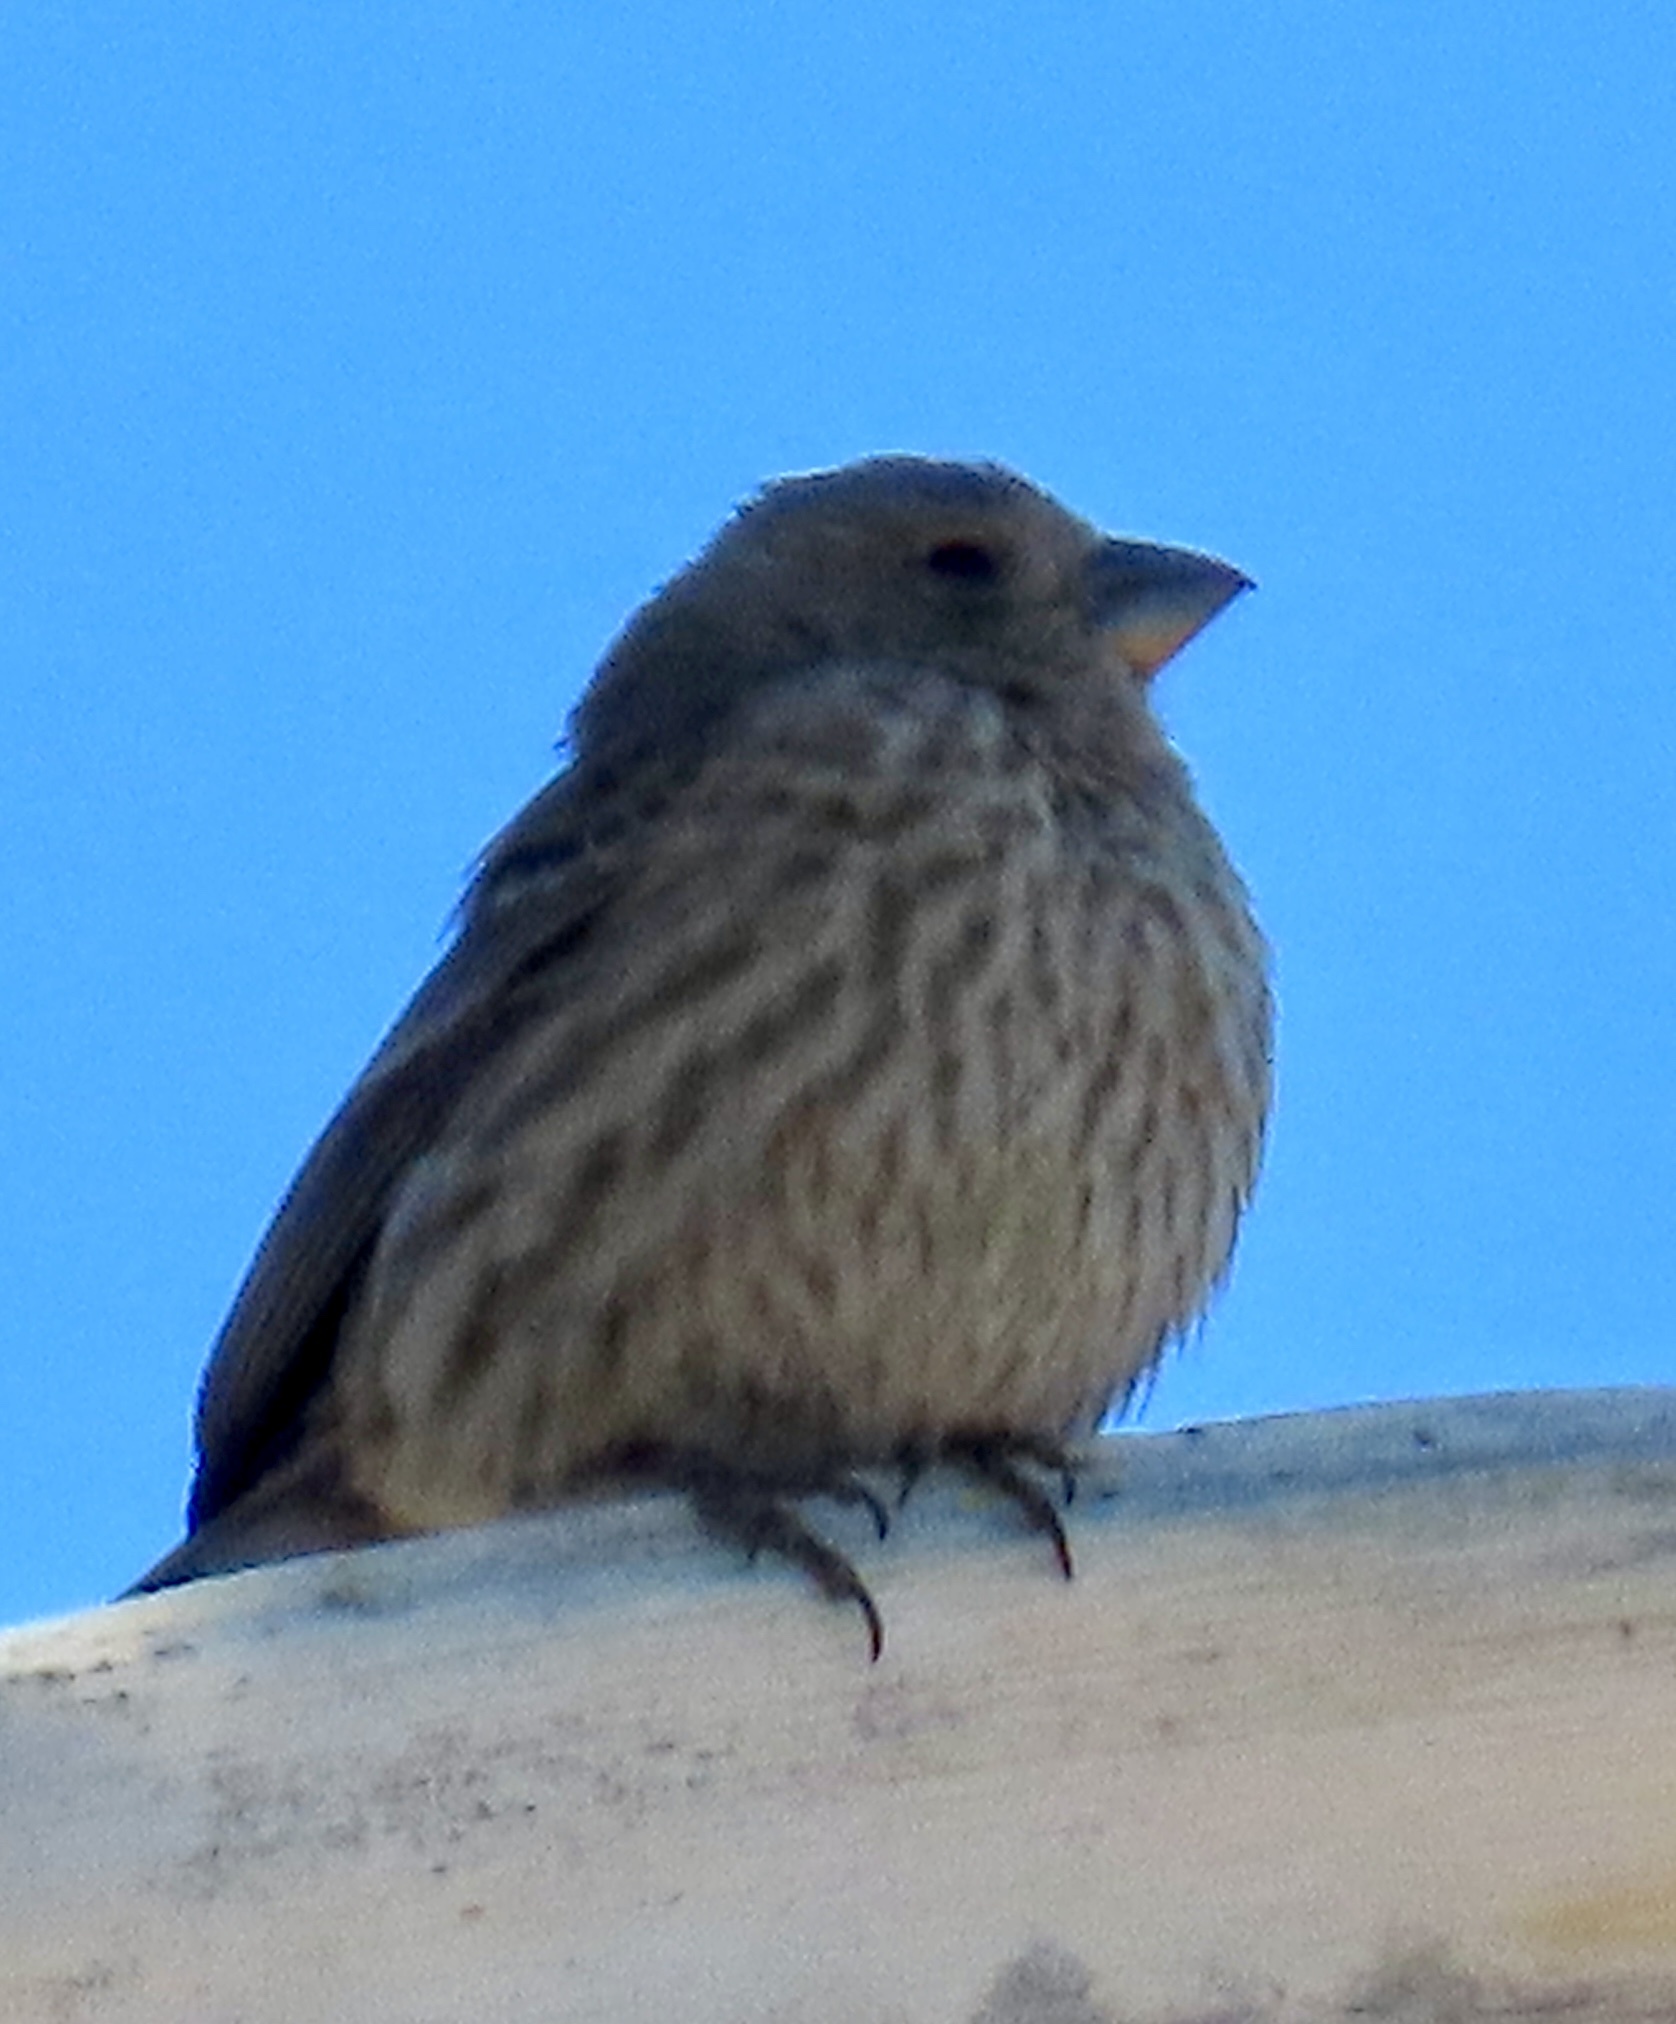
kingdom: Animalia
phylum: Chordata
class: Aves
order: Passeriformes
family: Fringillidae
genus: Haemorhous
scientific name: Haemorhous mexicanus
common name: House finch
